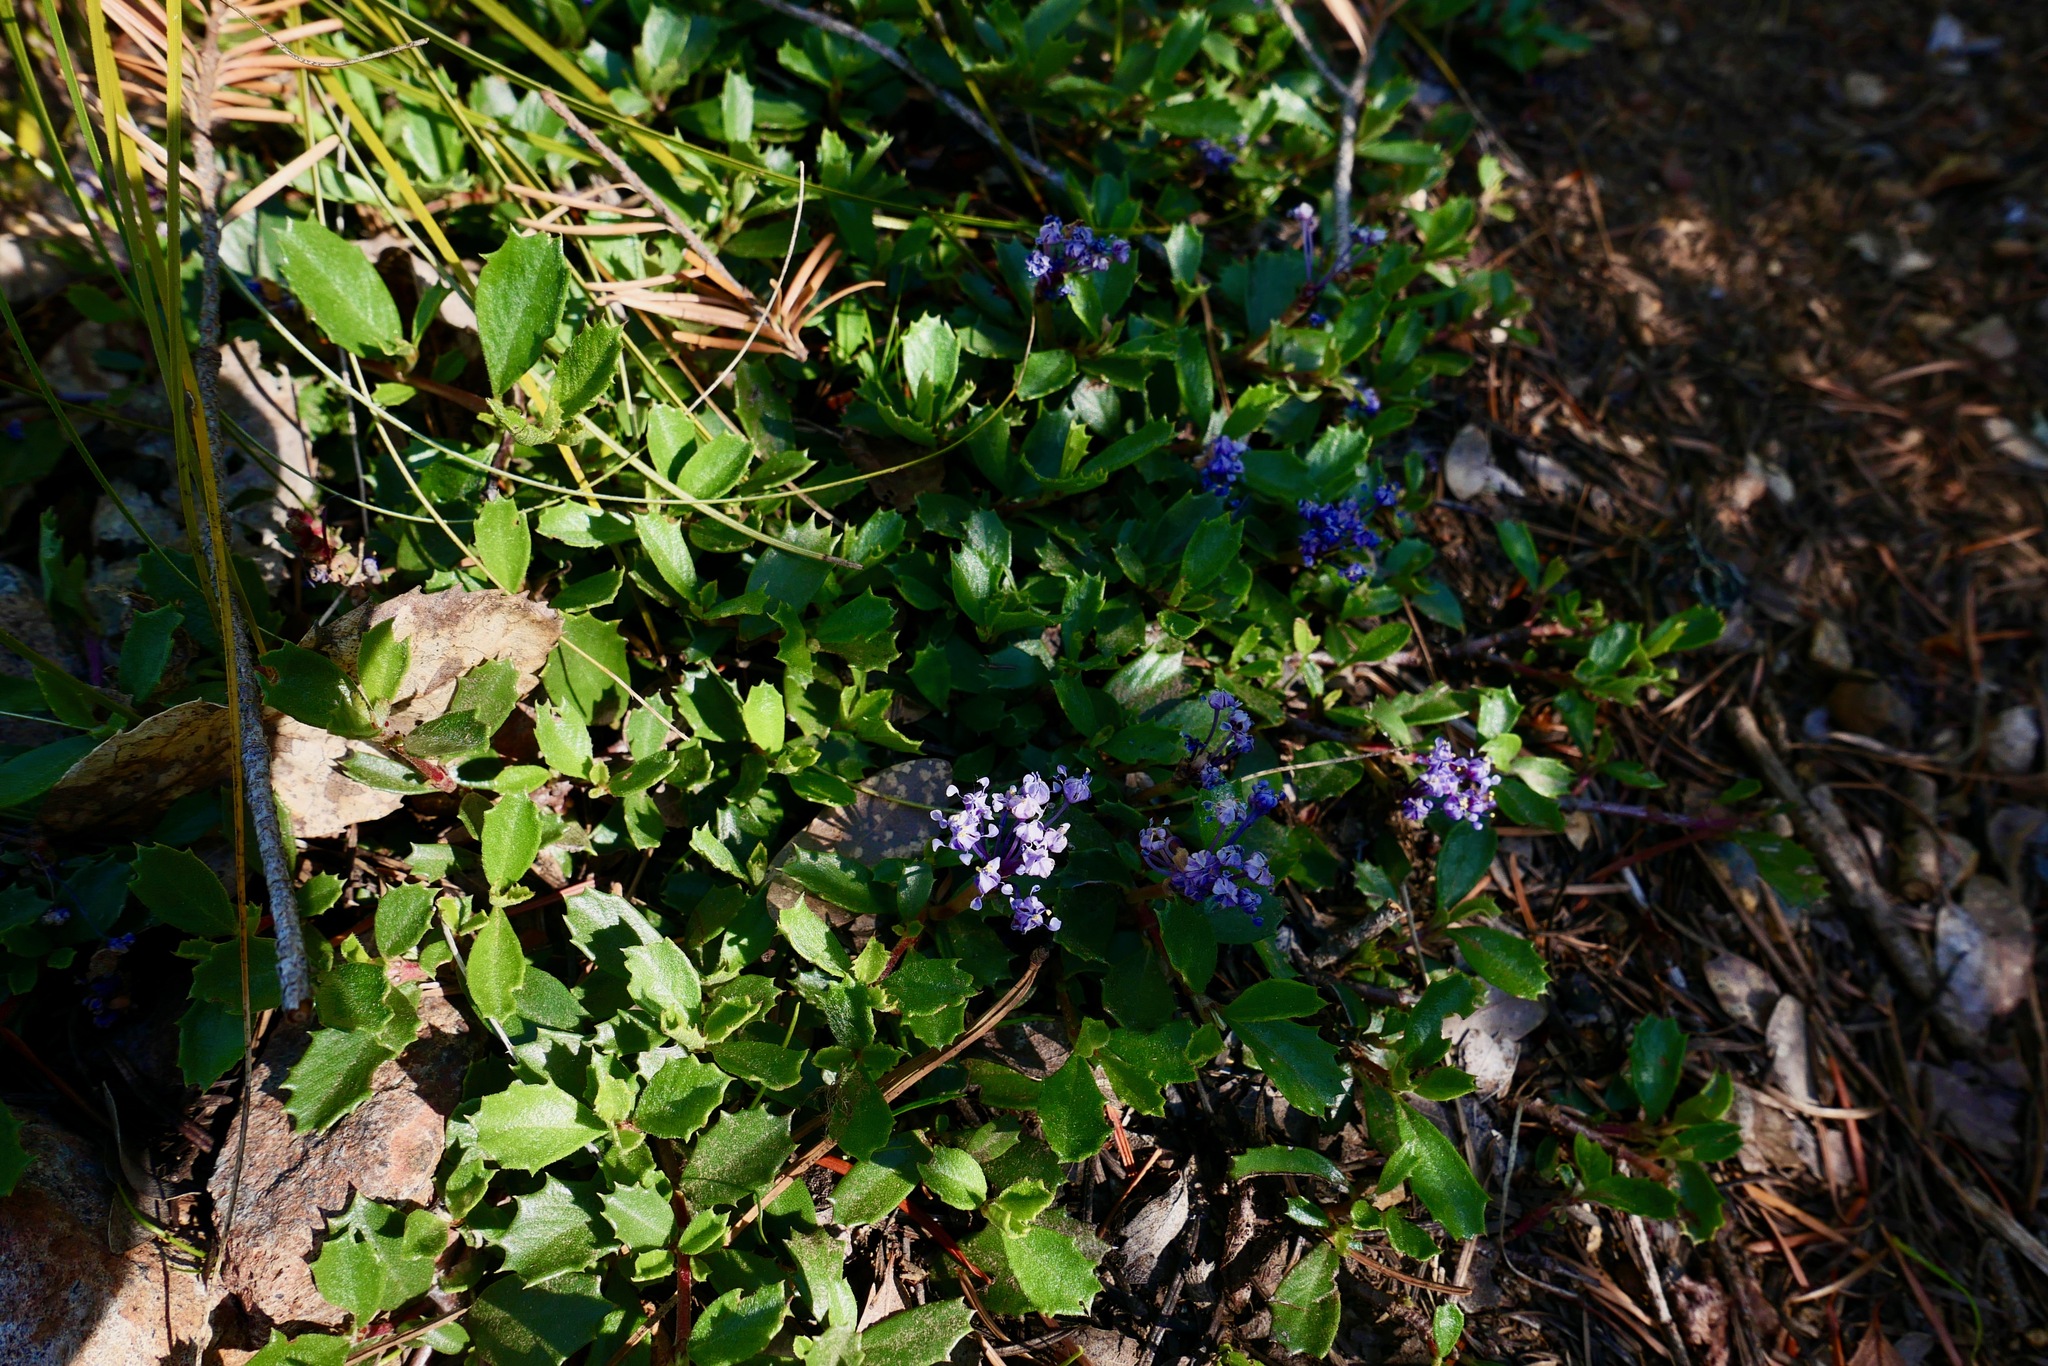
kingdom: Plantae
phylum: Tracheophyta
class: Magnoliopsida
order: Rosales
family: Rhamnaceae
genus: Ceanothus
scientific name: Ceanothus prostratus
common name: Mahala-mat
